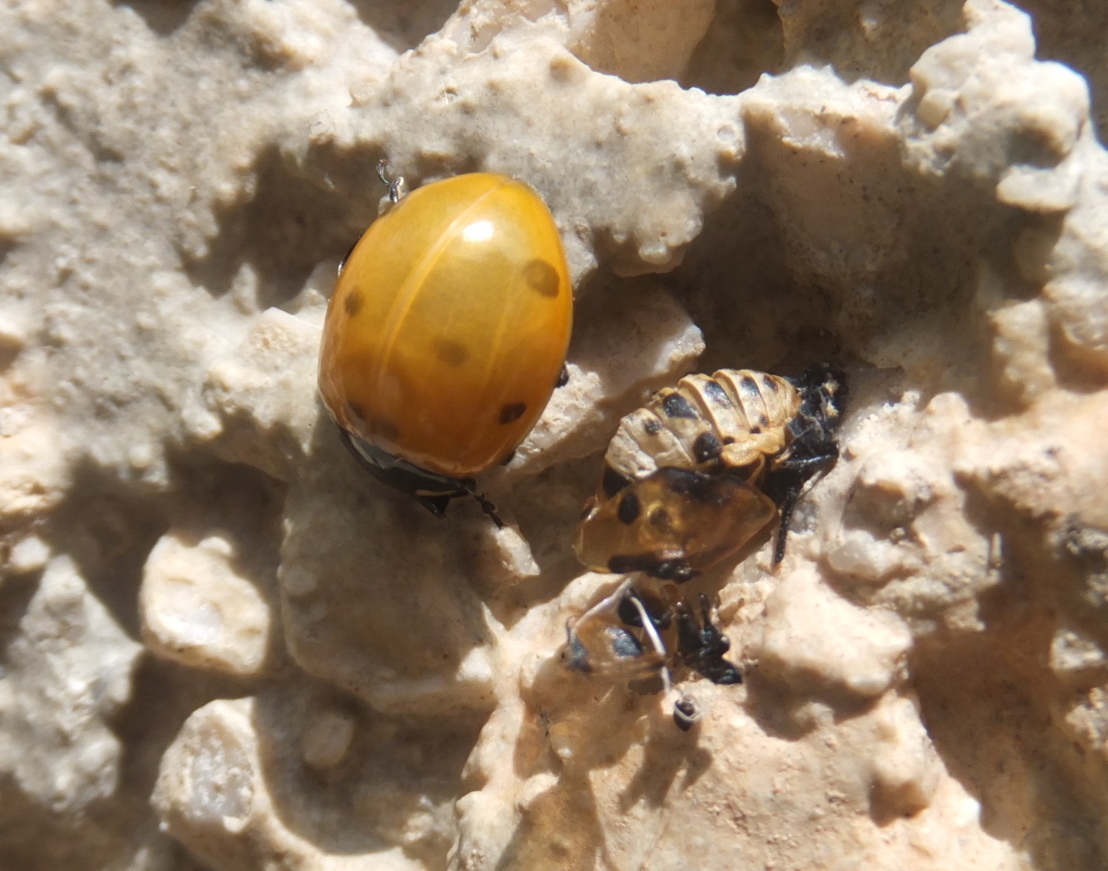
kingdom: Animalia
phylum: Arthropoda
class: Insecta
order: Coleoptera
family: Coccinellidae
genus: Coccinella
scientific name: Coccinella septempunctata
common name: Sevenspotted lady beetle
